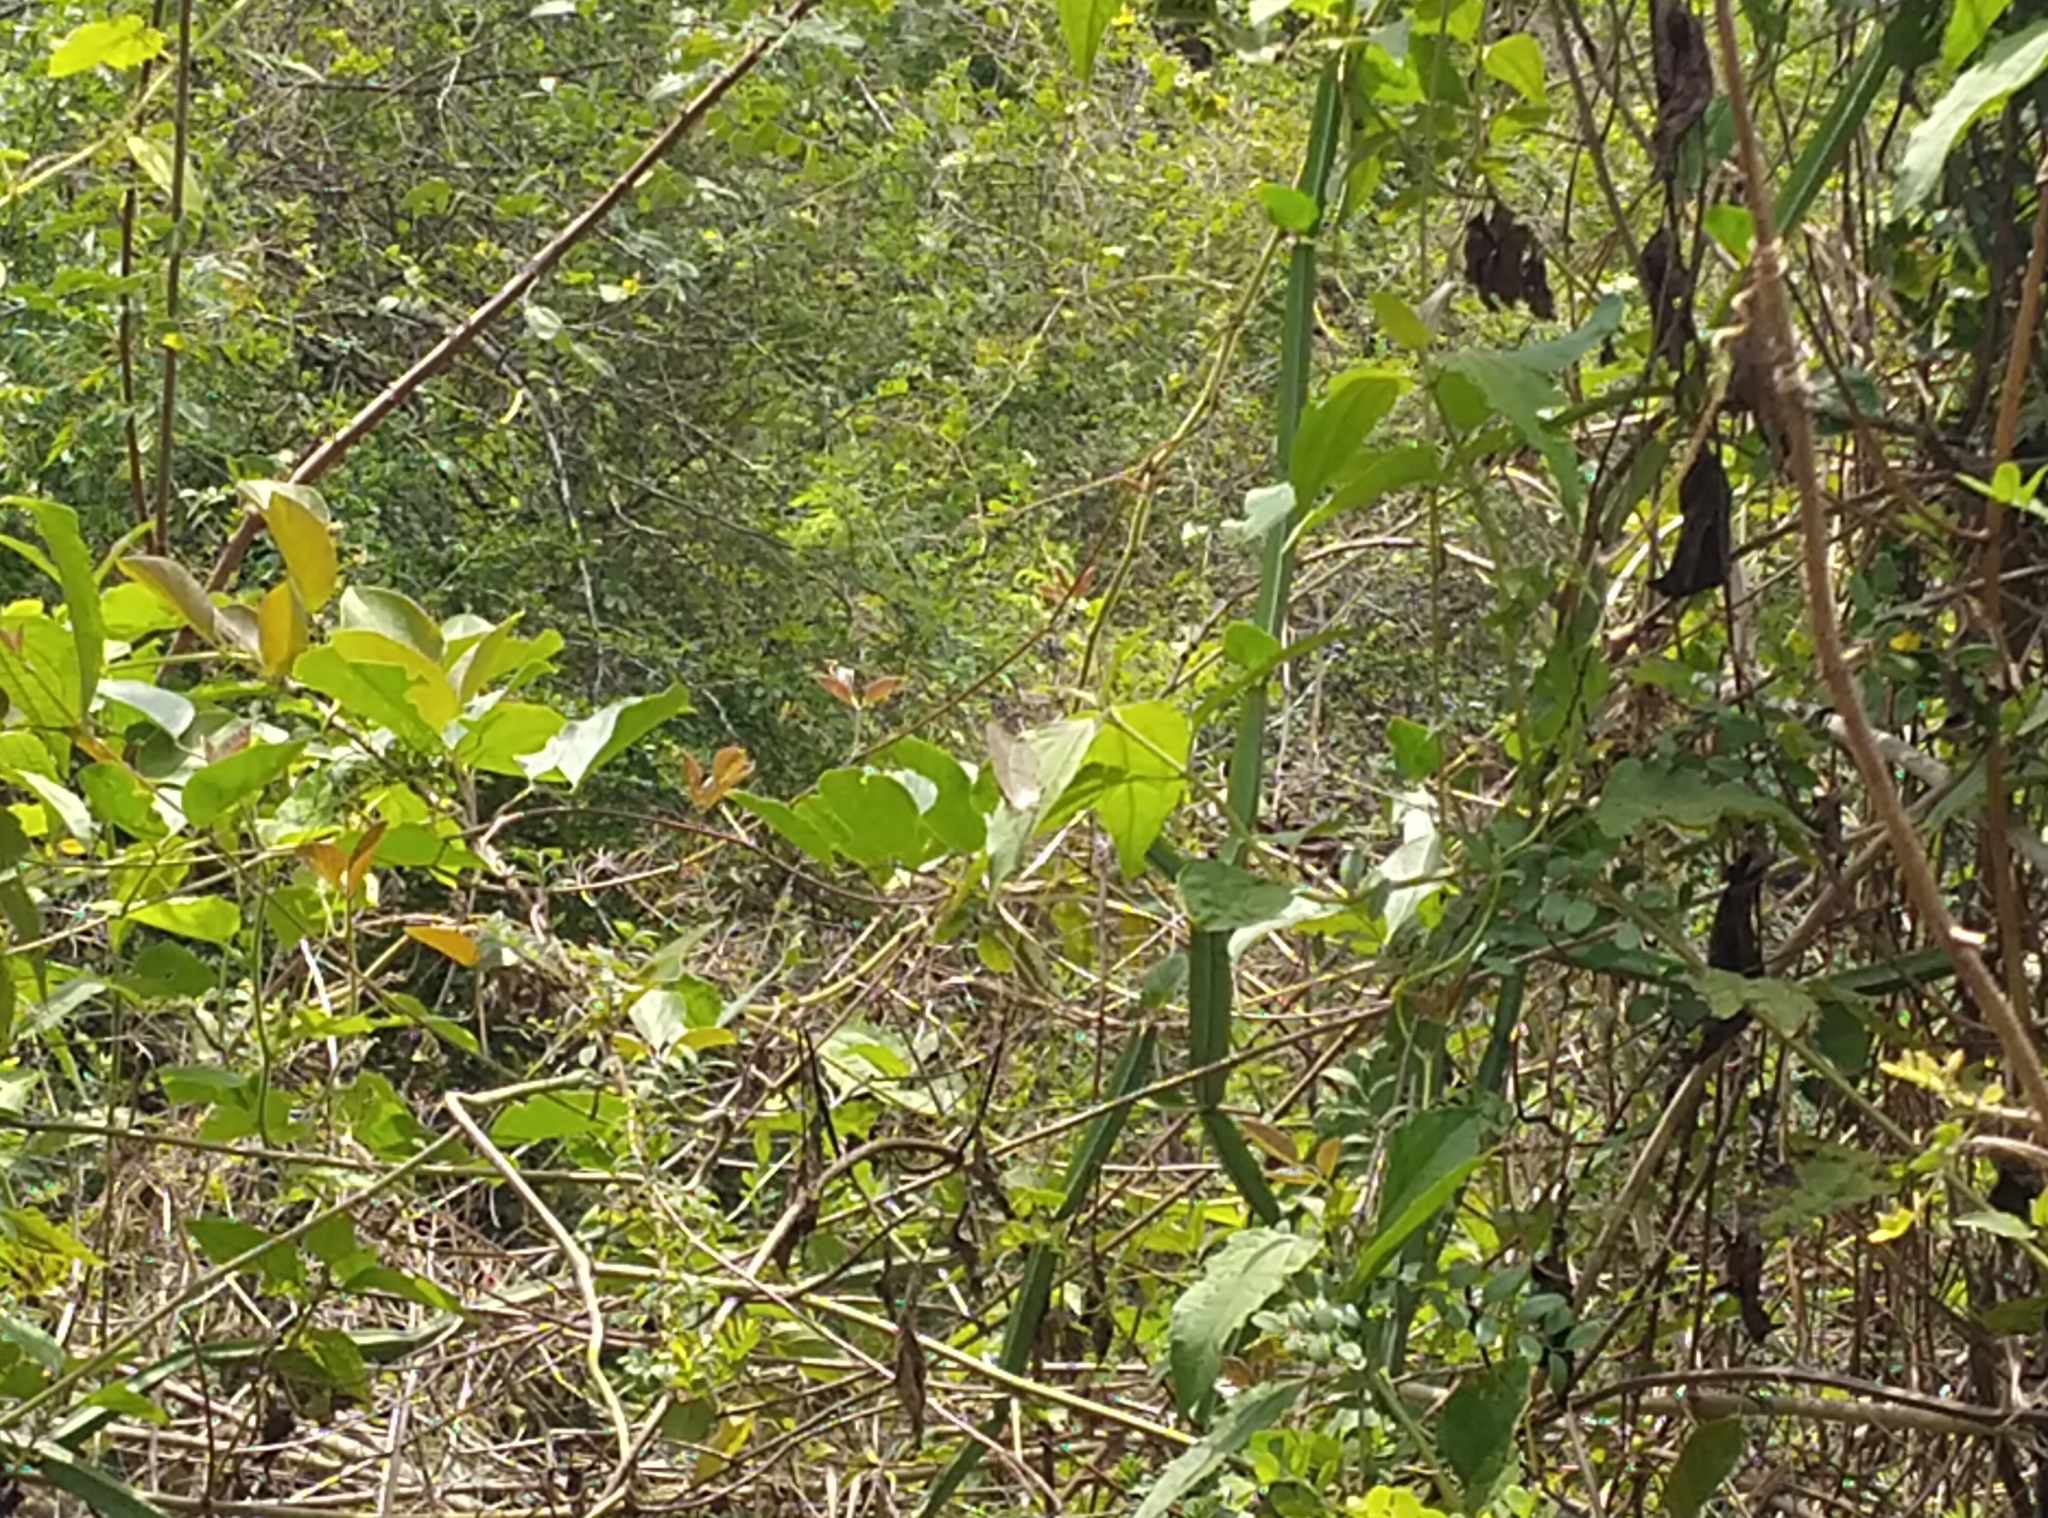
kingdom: Animalia
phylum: Arthropoda
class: Insecta
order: Lepidoptera
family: Nymphalidae
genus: Junonia
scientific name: Junonia atlites
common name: Grey pansy
